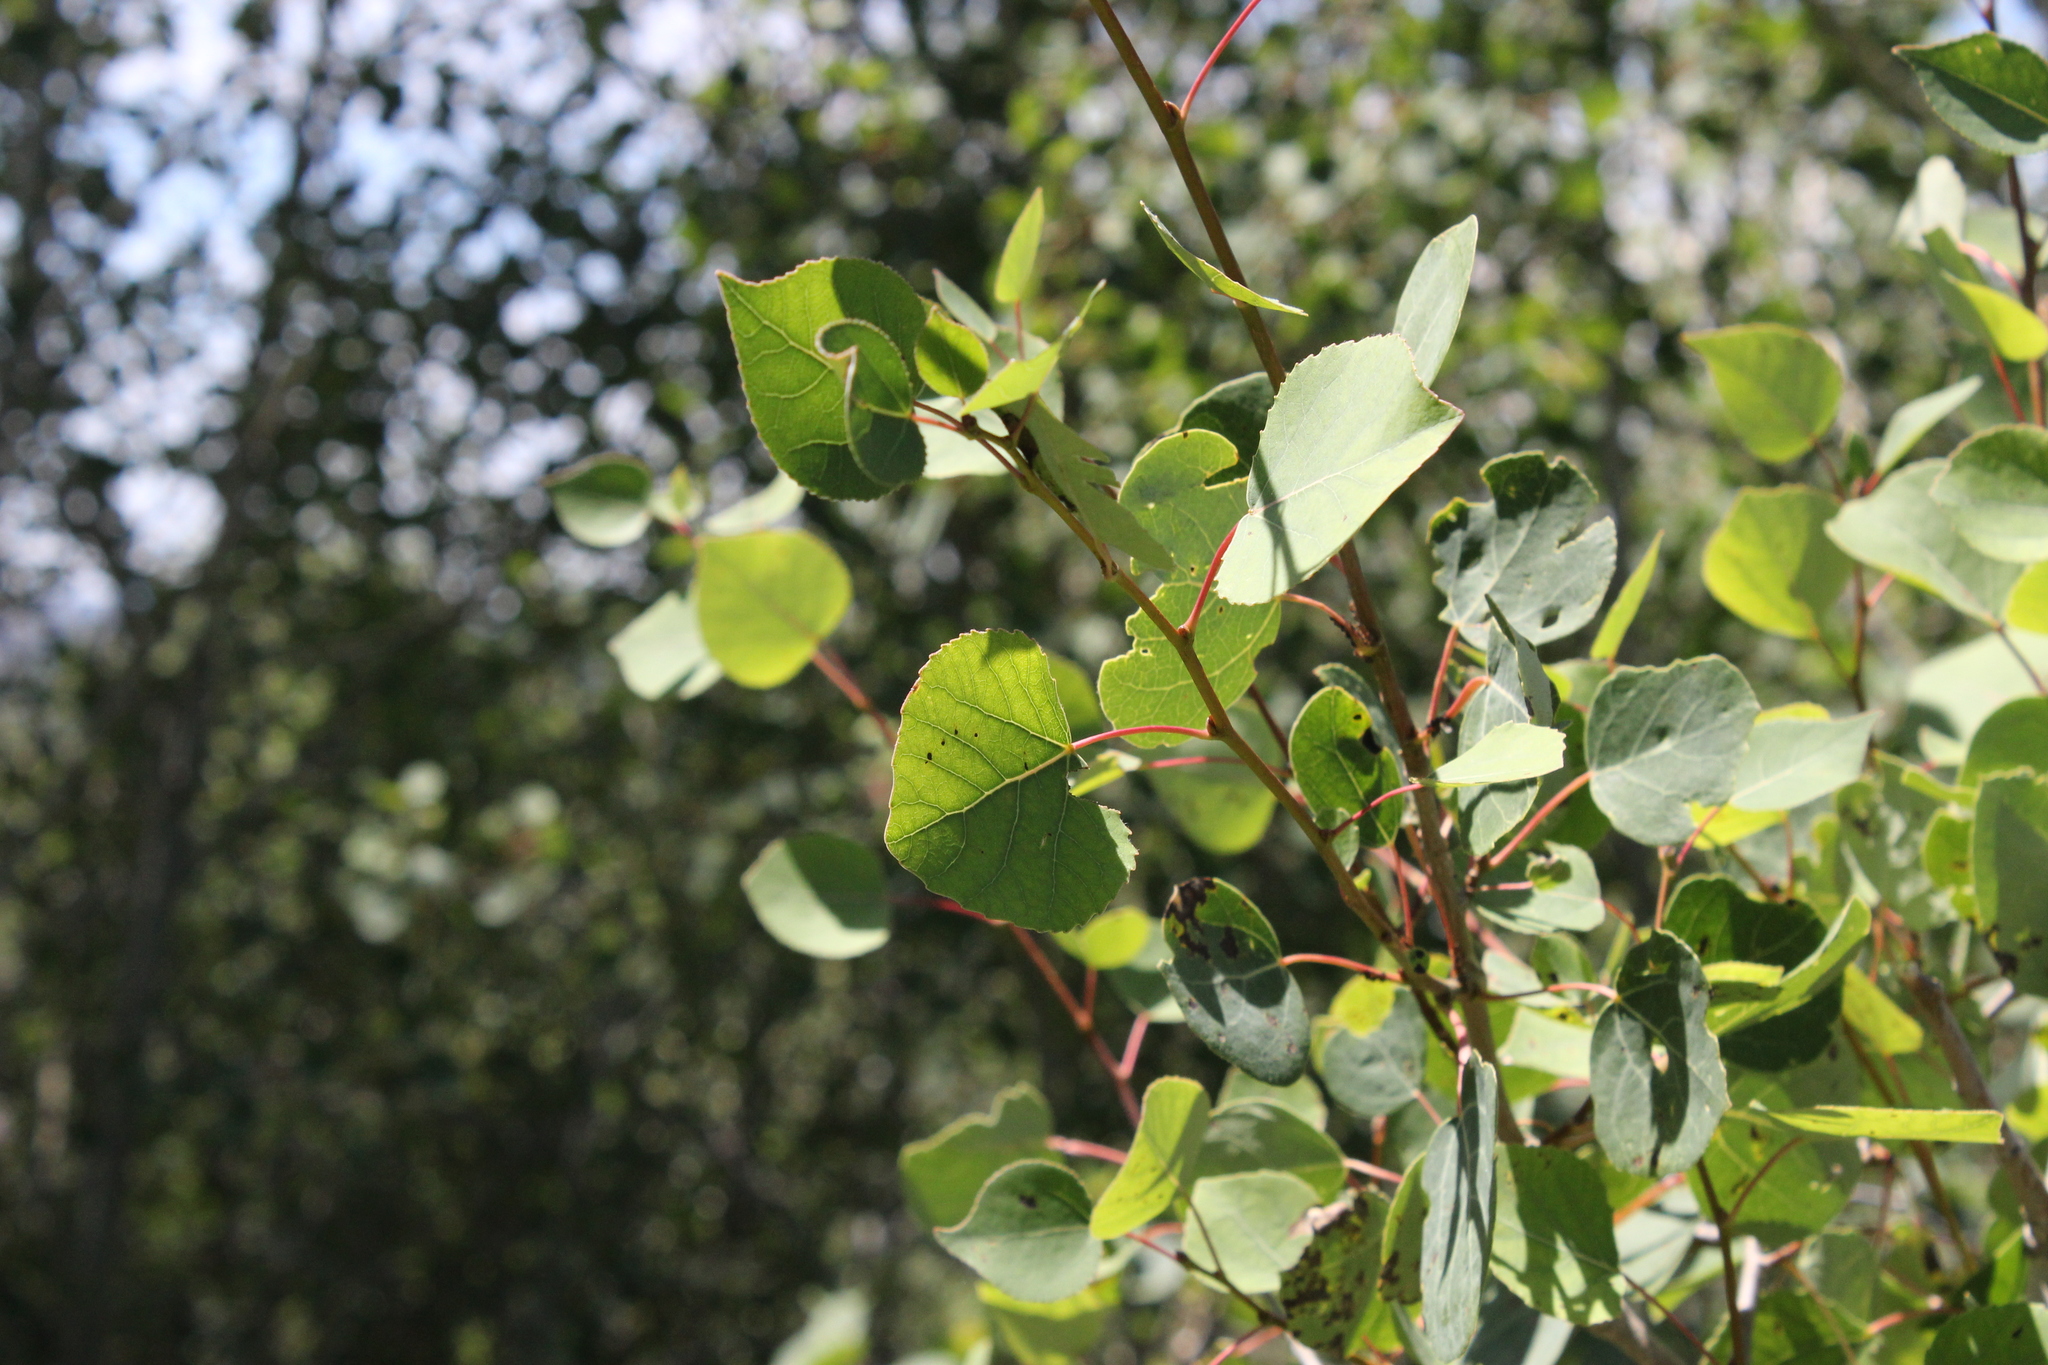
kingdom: Plantae
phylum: Tracheophyta
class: Magnoliopsida
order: Malpighiales
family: Salicaceae
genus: Populus
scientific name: Populus tremuloides
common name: Quaking aspen
